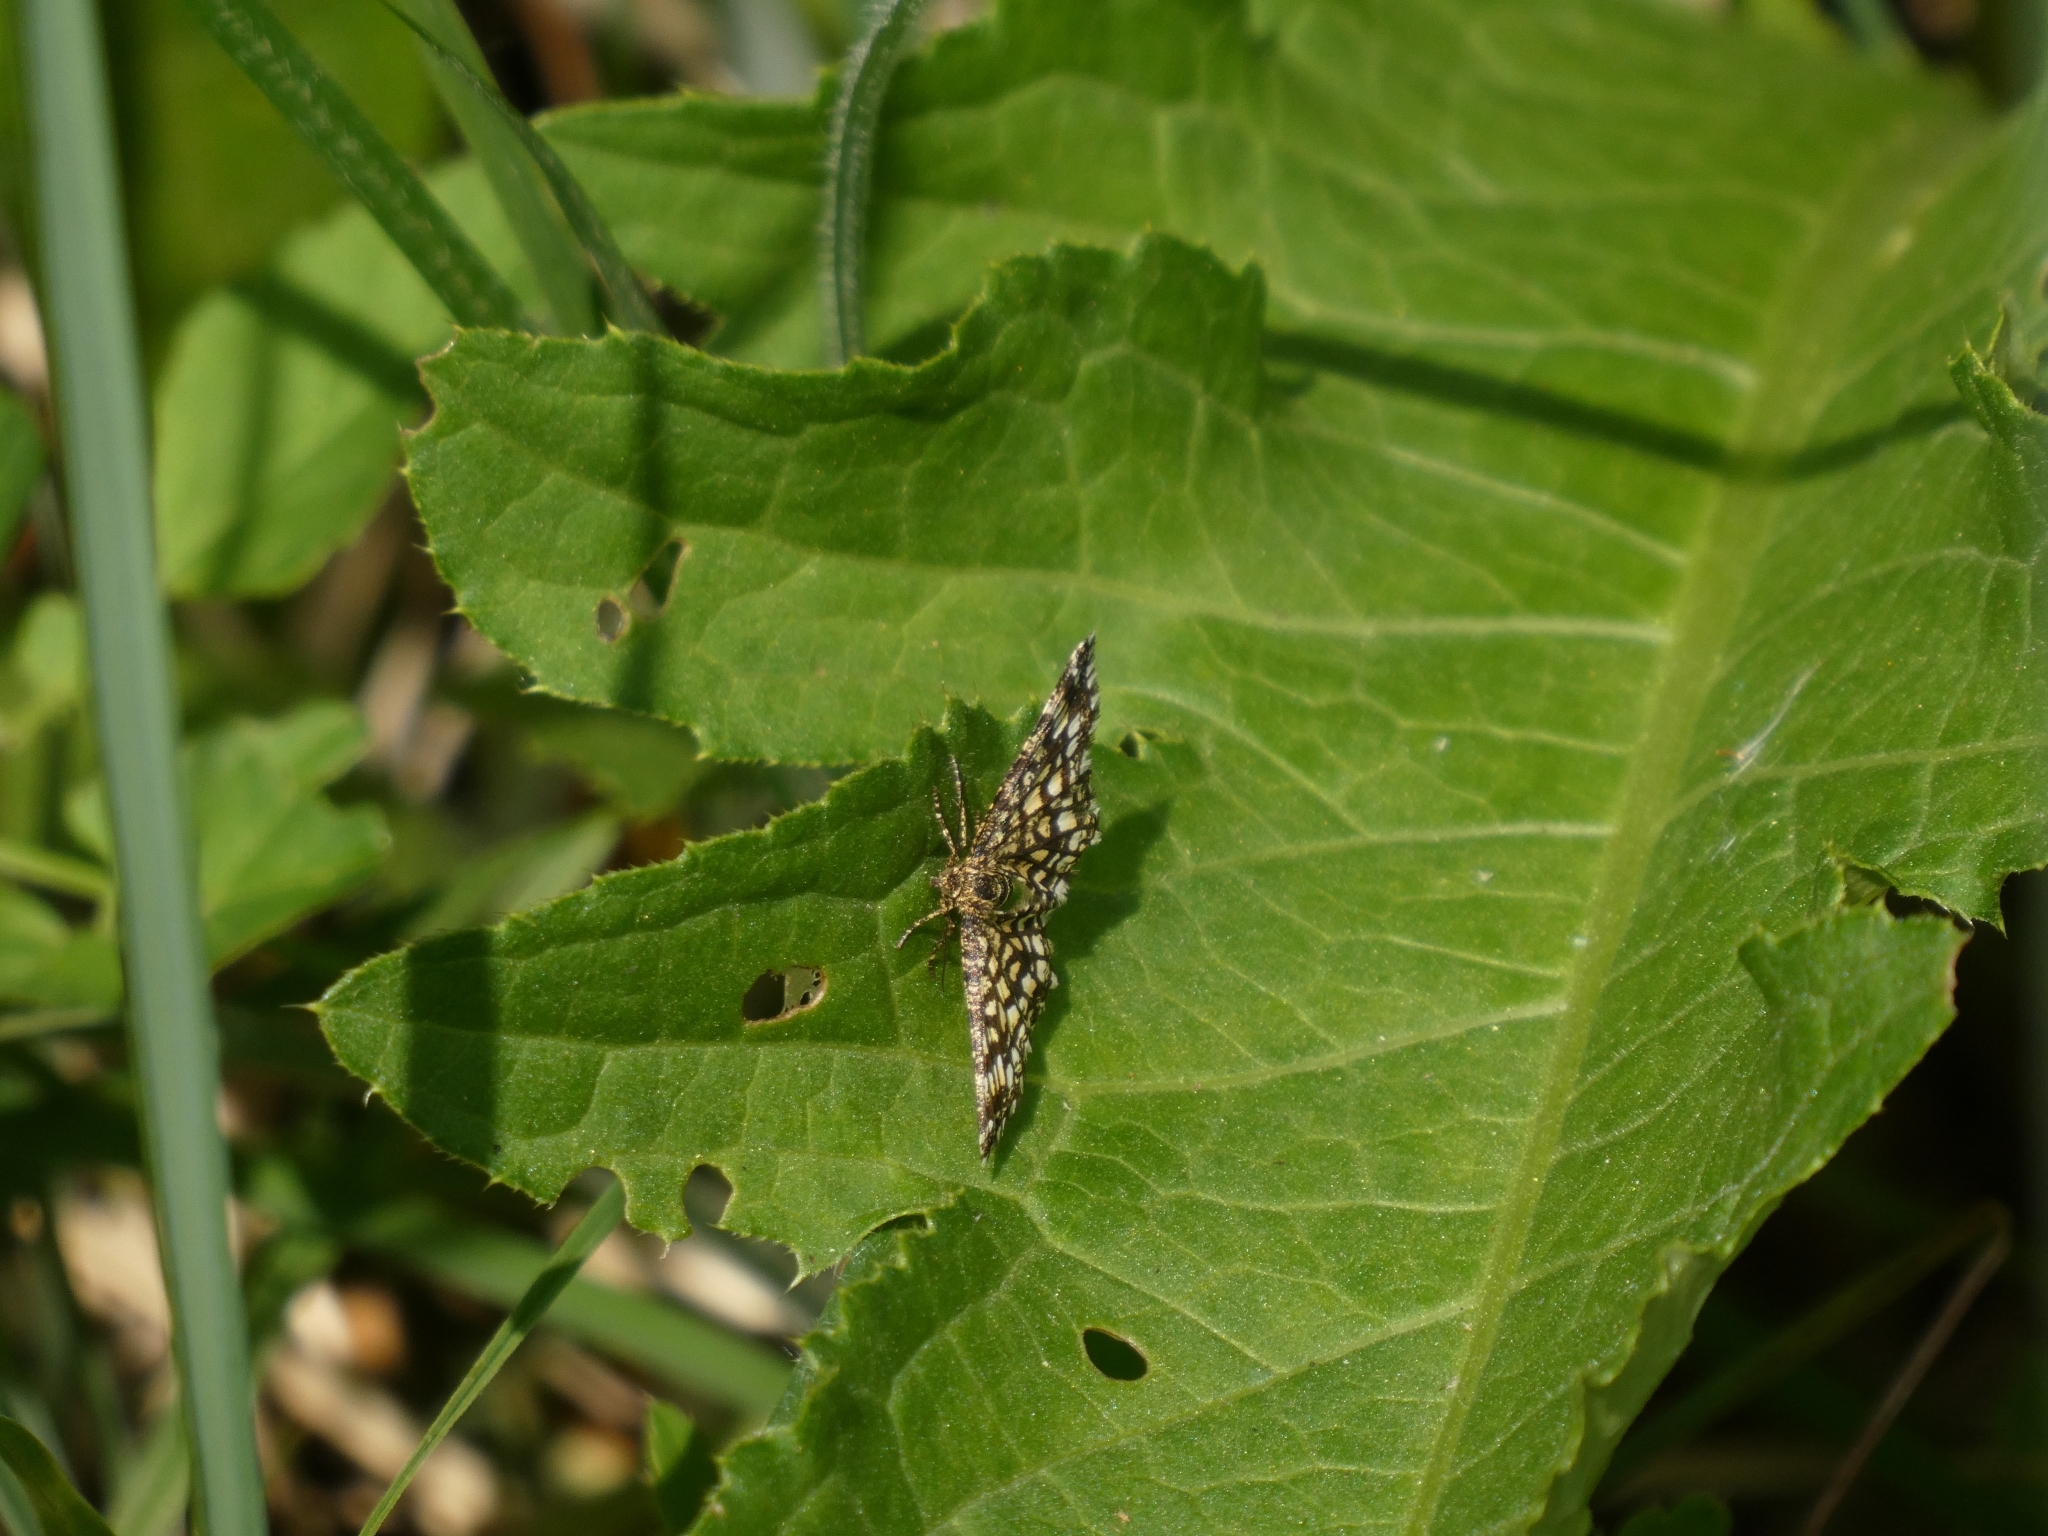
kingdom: Animalia
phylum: Arthropoda
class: Insecta
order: Lepidoptera
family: Geometridae
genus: Chiasmia
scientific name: Chiasmia clathrata
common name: Latticed heath
